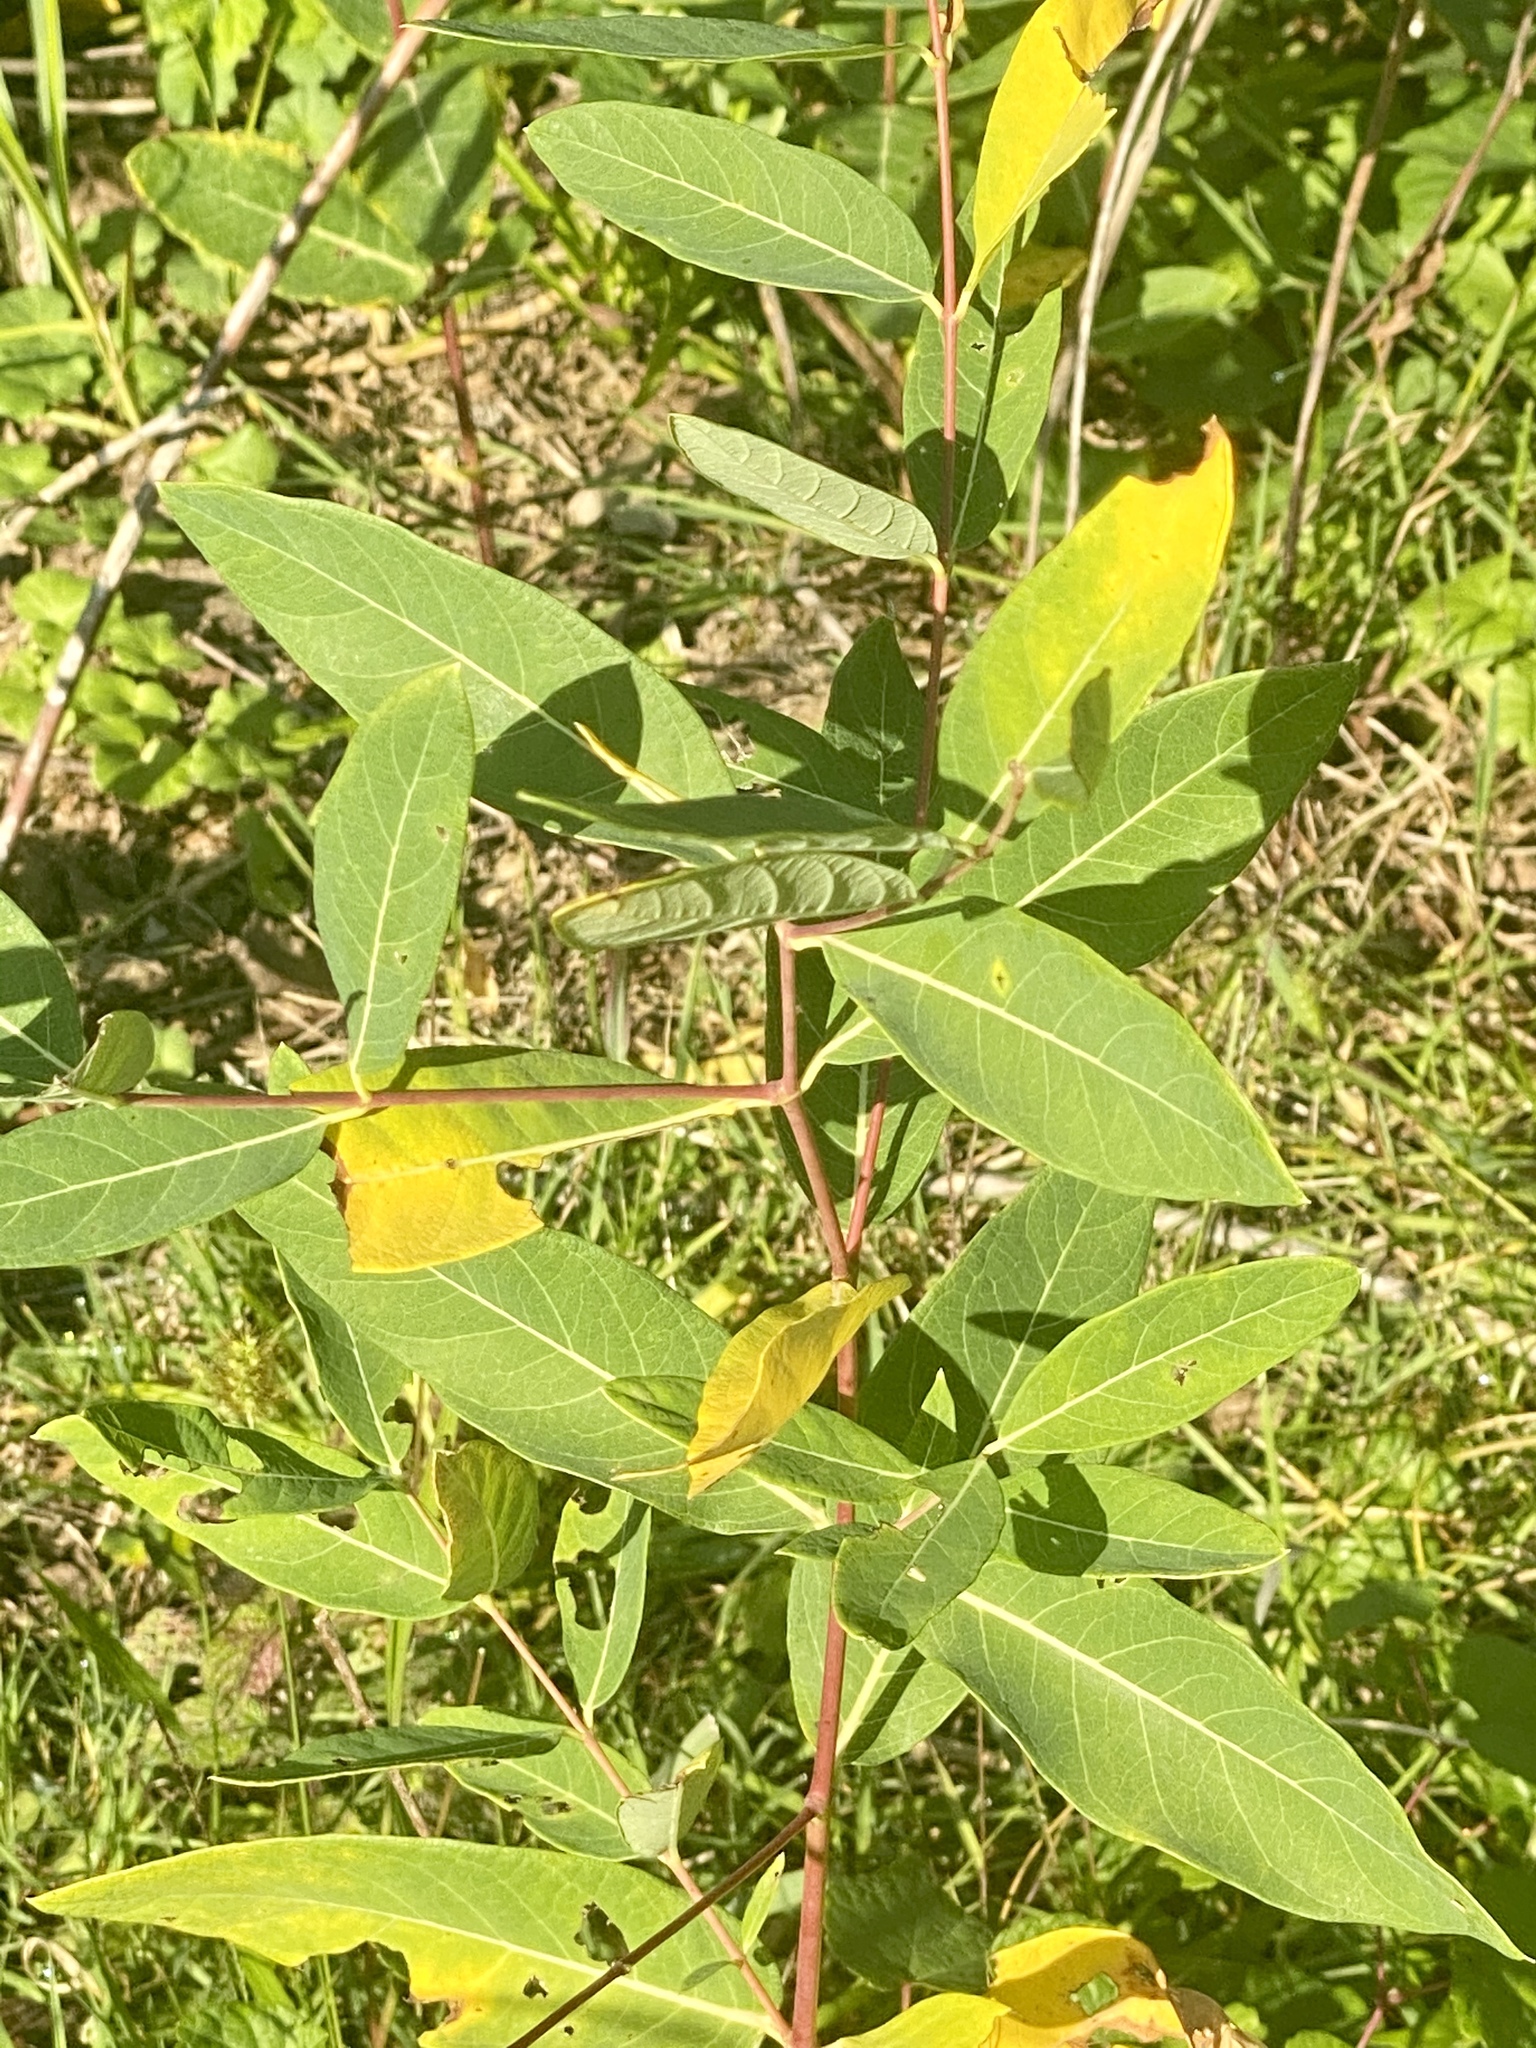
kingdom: Plantae
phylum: Tracheophyta
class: Magnoliopsida
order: Gentianales
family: Apocynaceae
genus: Apocynum
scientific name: Apocynum cannabinum
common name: Hemp dogbane
